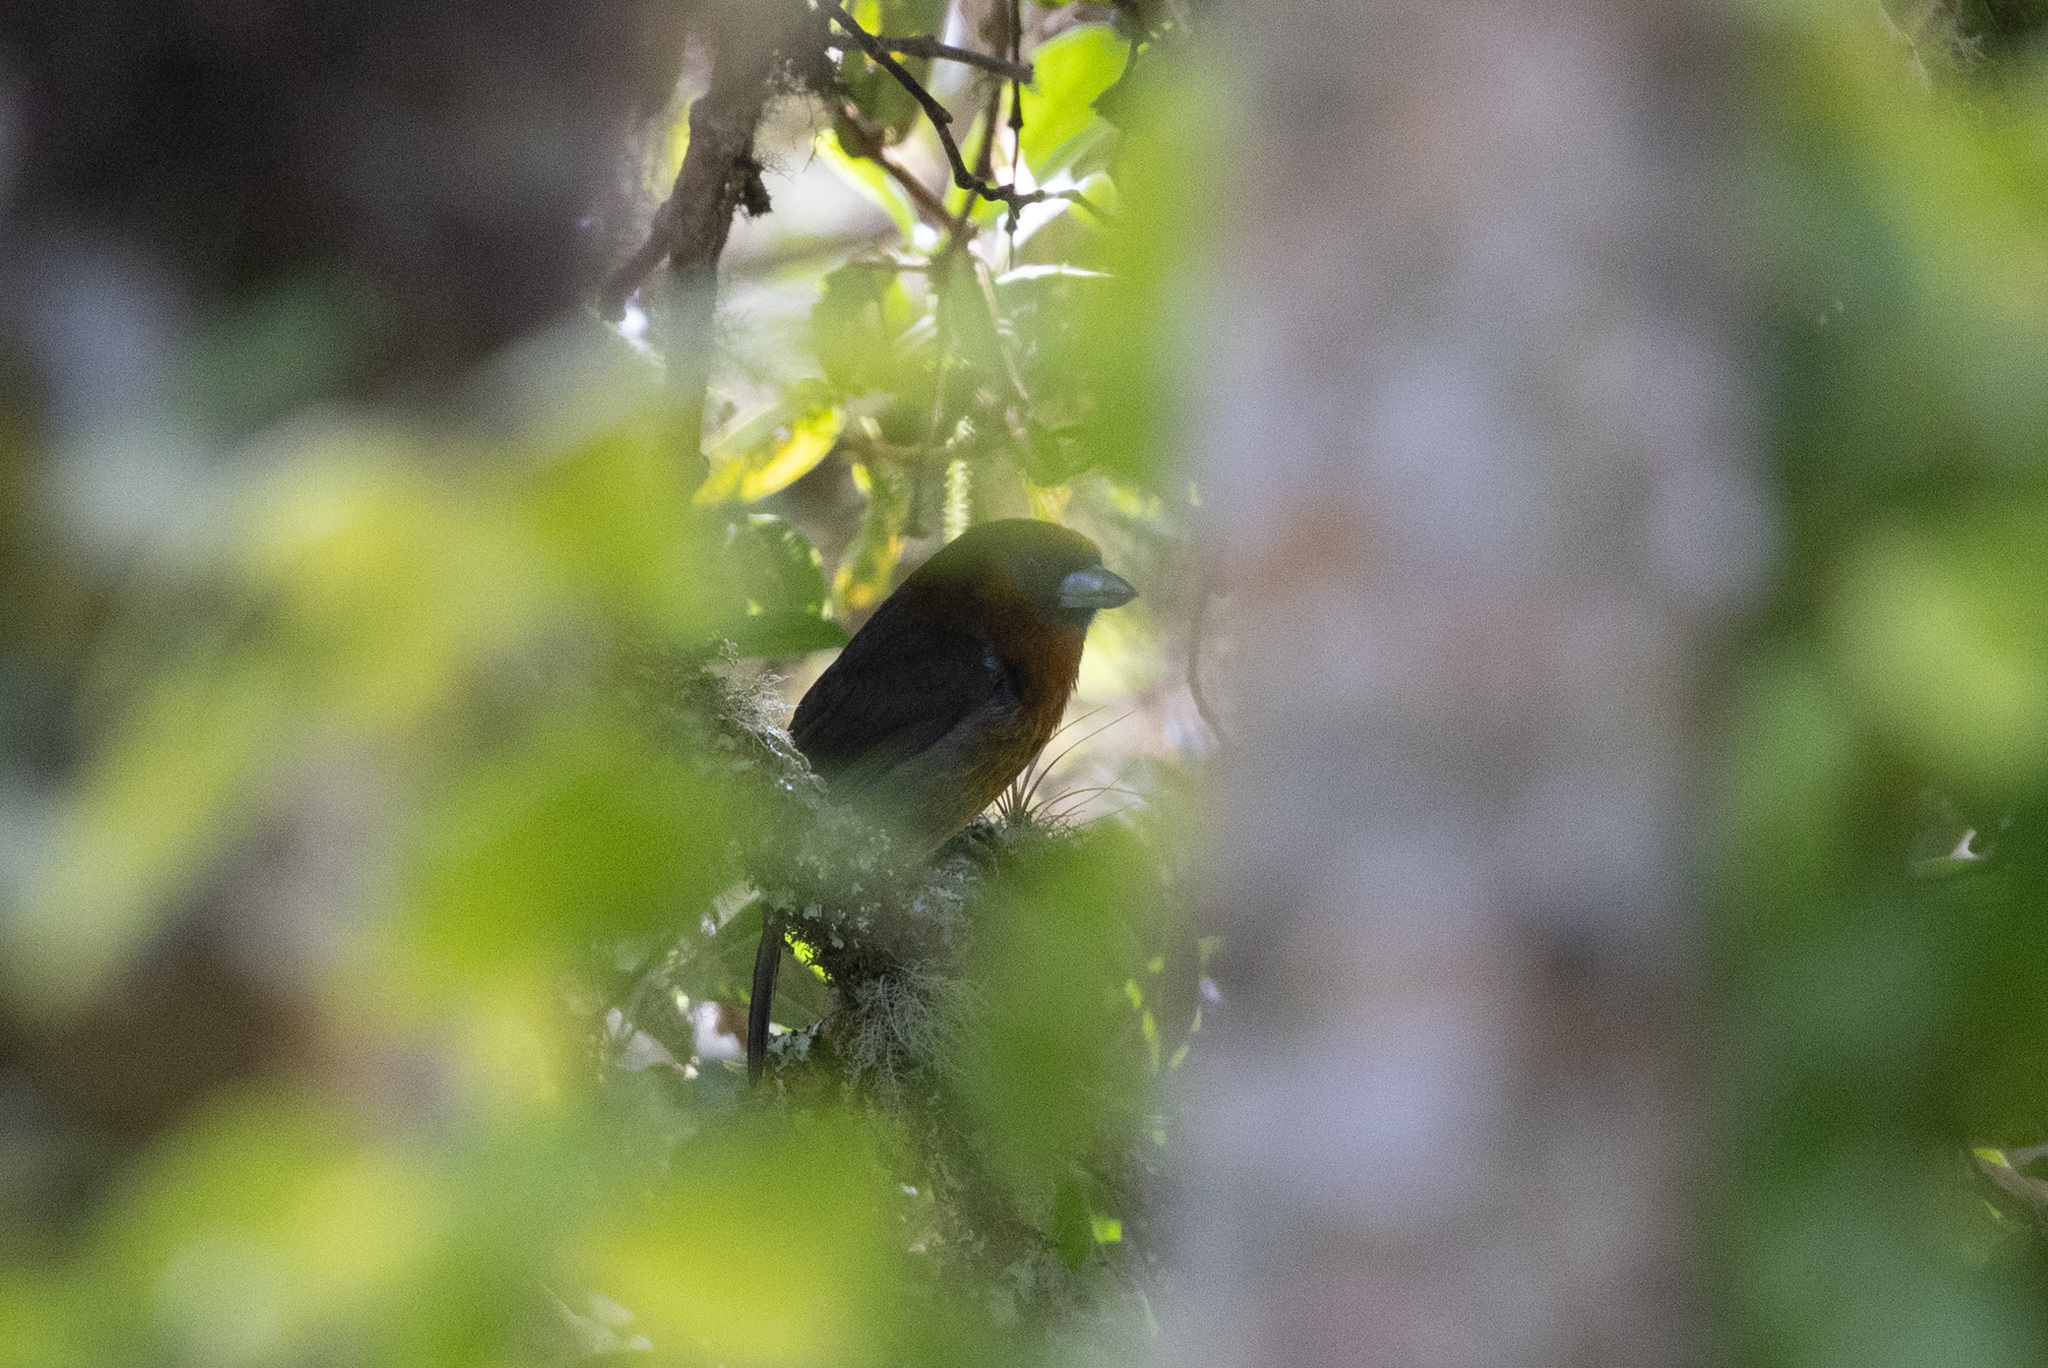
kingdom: Animalia
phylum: Chordata
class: Aves
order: Piciformes
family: Semnornithidae
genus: Semnornis
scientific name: Semnornis frantzii
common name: Prong-billed barbet
